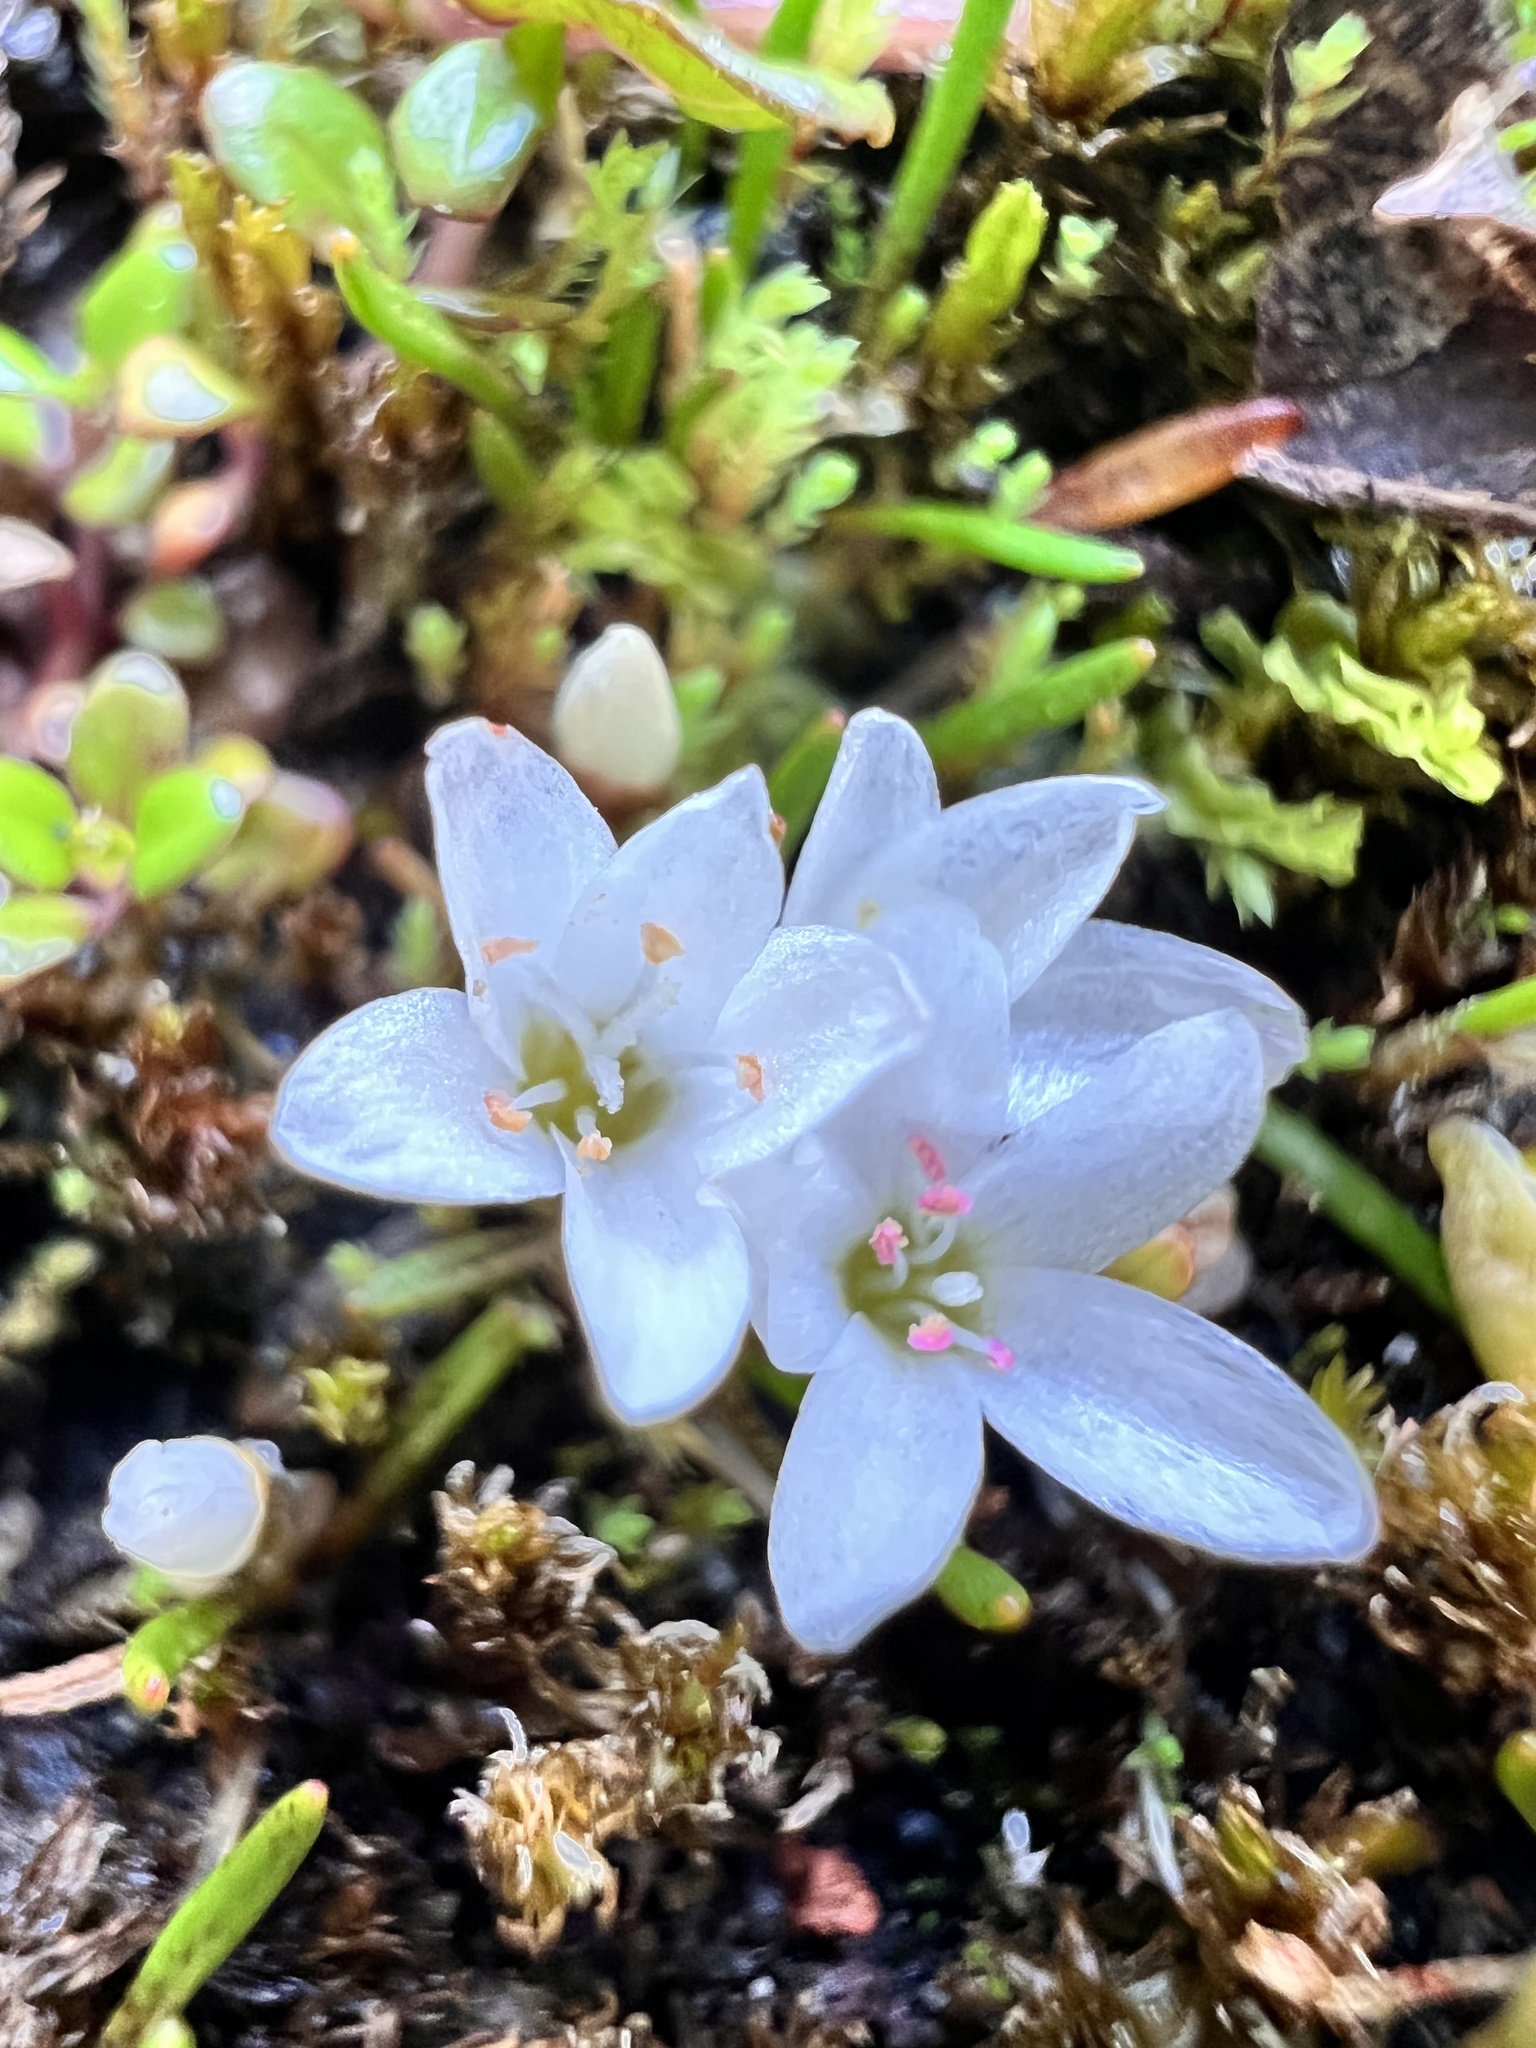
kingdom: Plantae
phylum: Tracheophyta
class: Magnoliopsida
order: Caryophyllales
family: Montiaceae
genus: Montia
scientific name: Montia calycina
